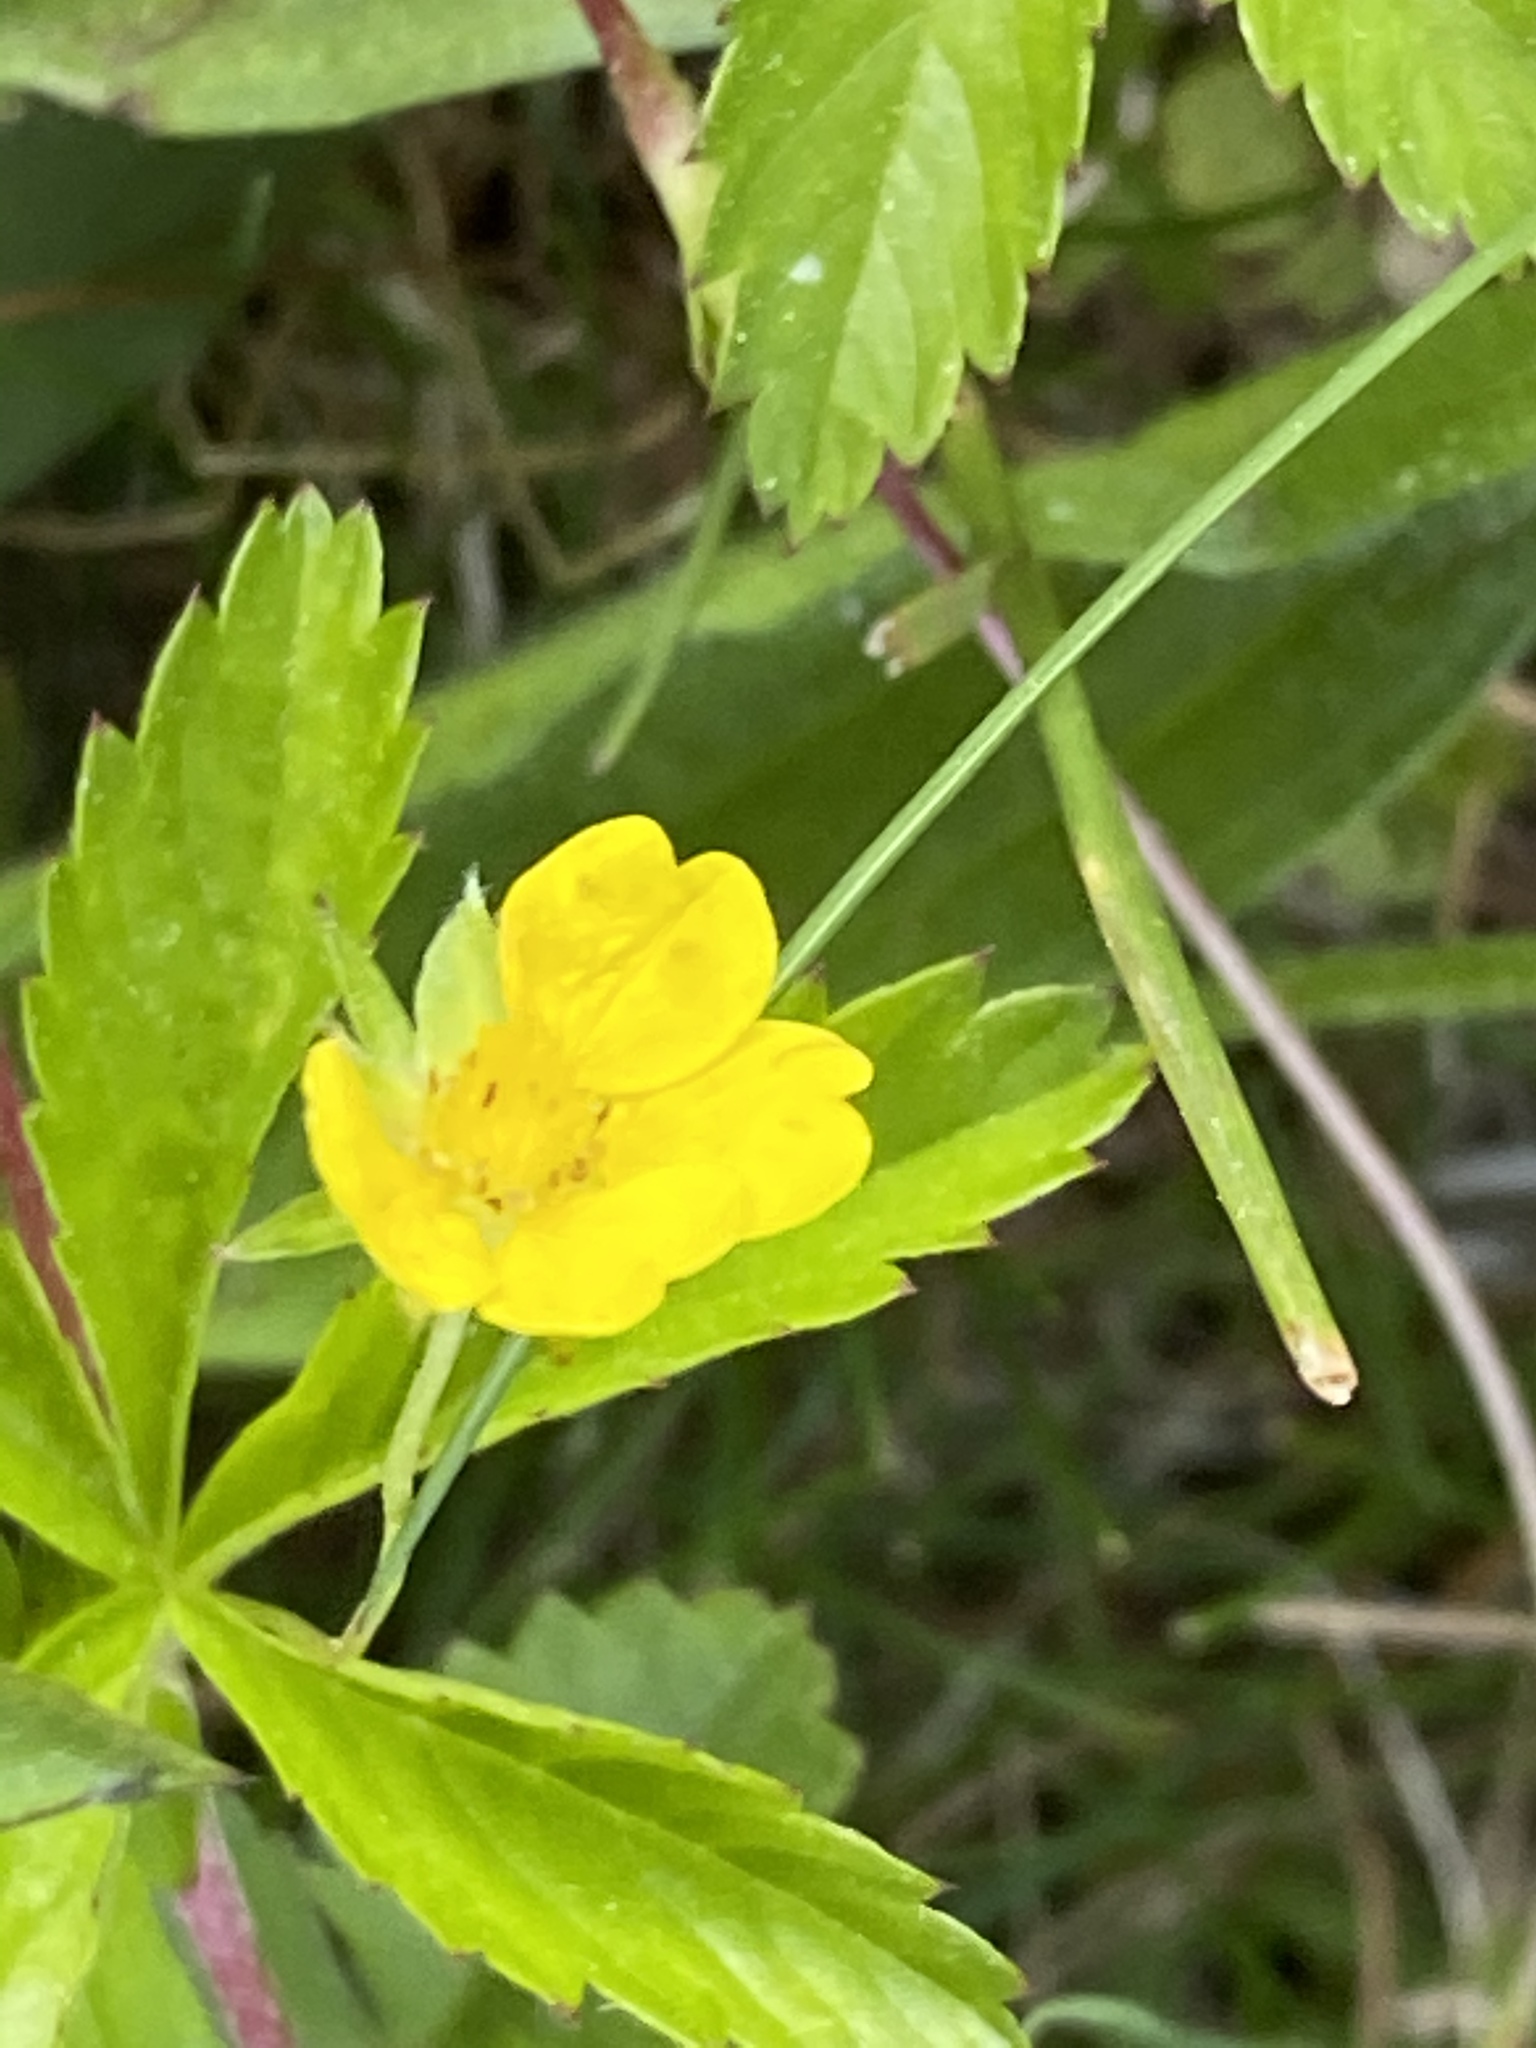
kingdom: Plantae
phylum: Tracheophyta
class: Magnoliopsida
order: Rosales
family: Rosaceae
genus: Potentilla
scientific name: Potentilla simplex
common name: Old field cinquefoil
